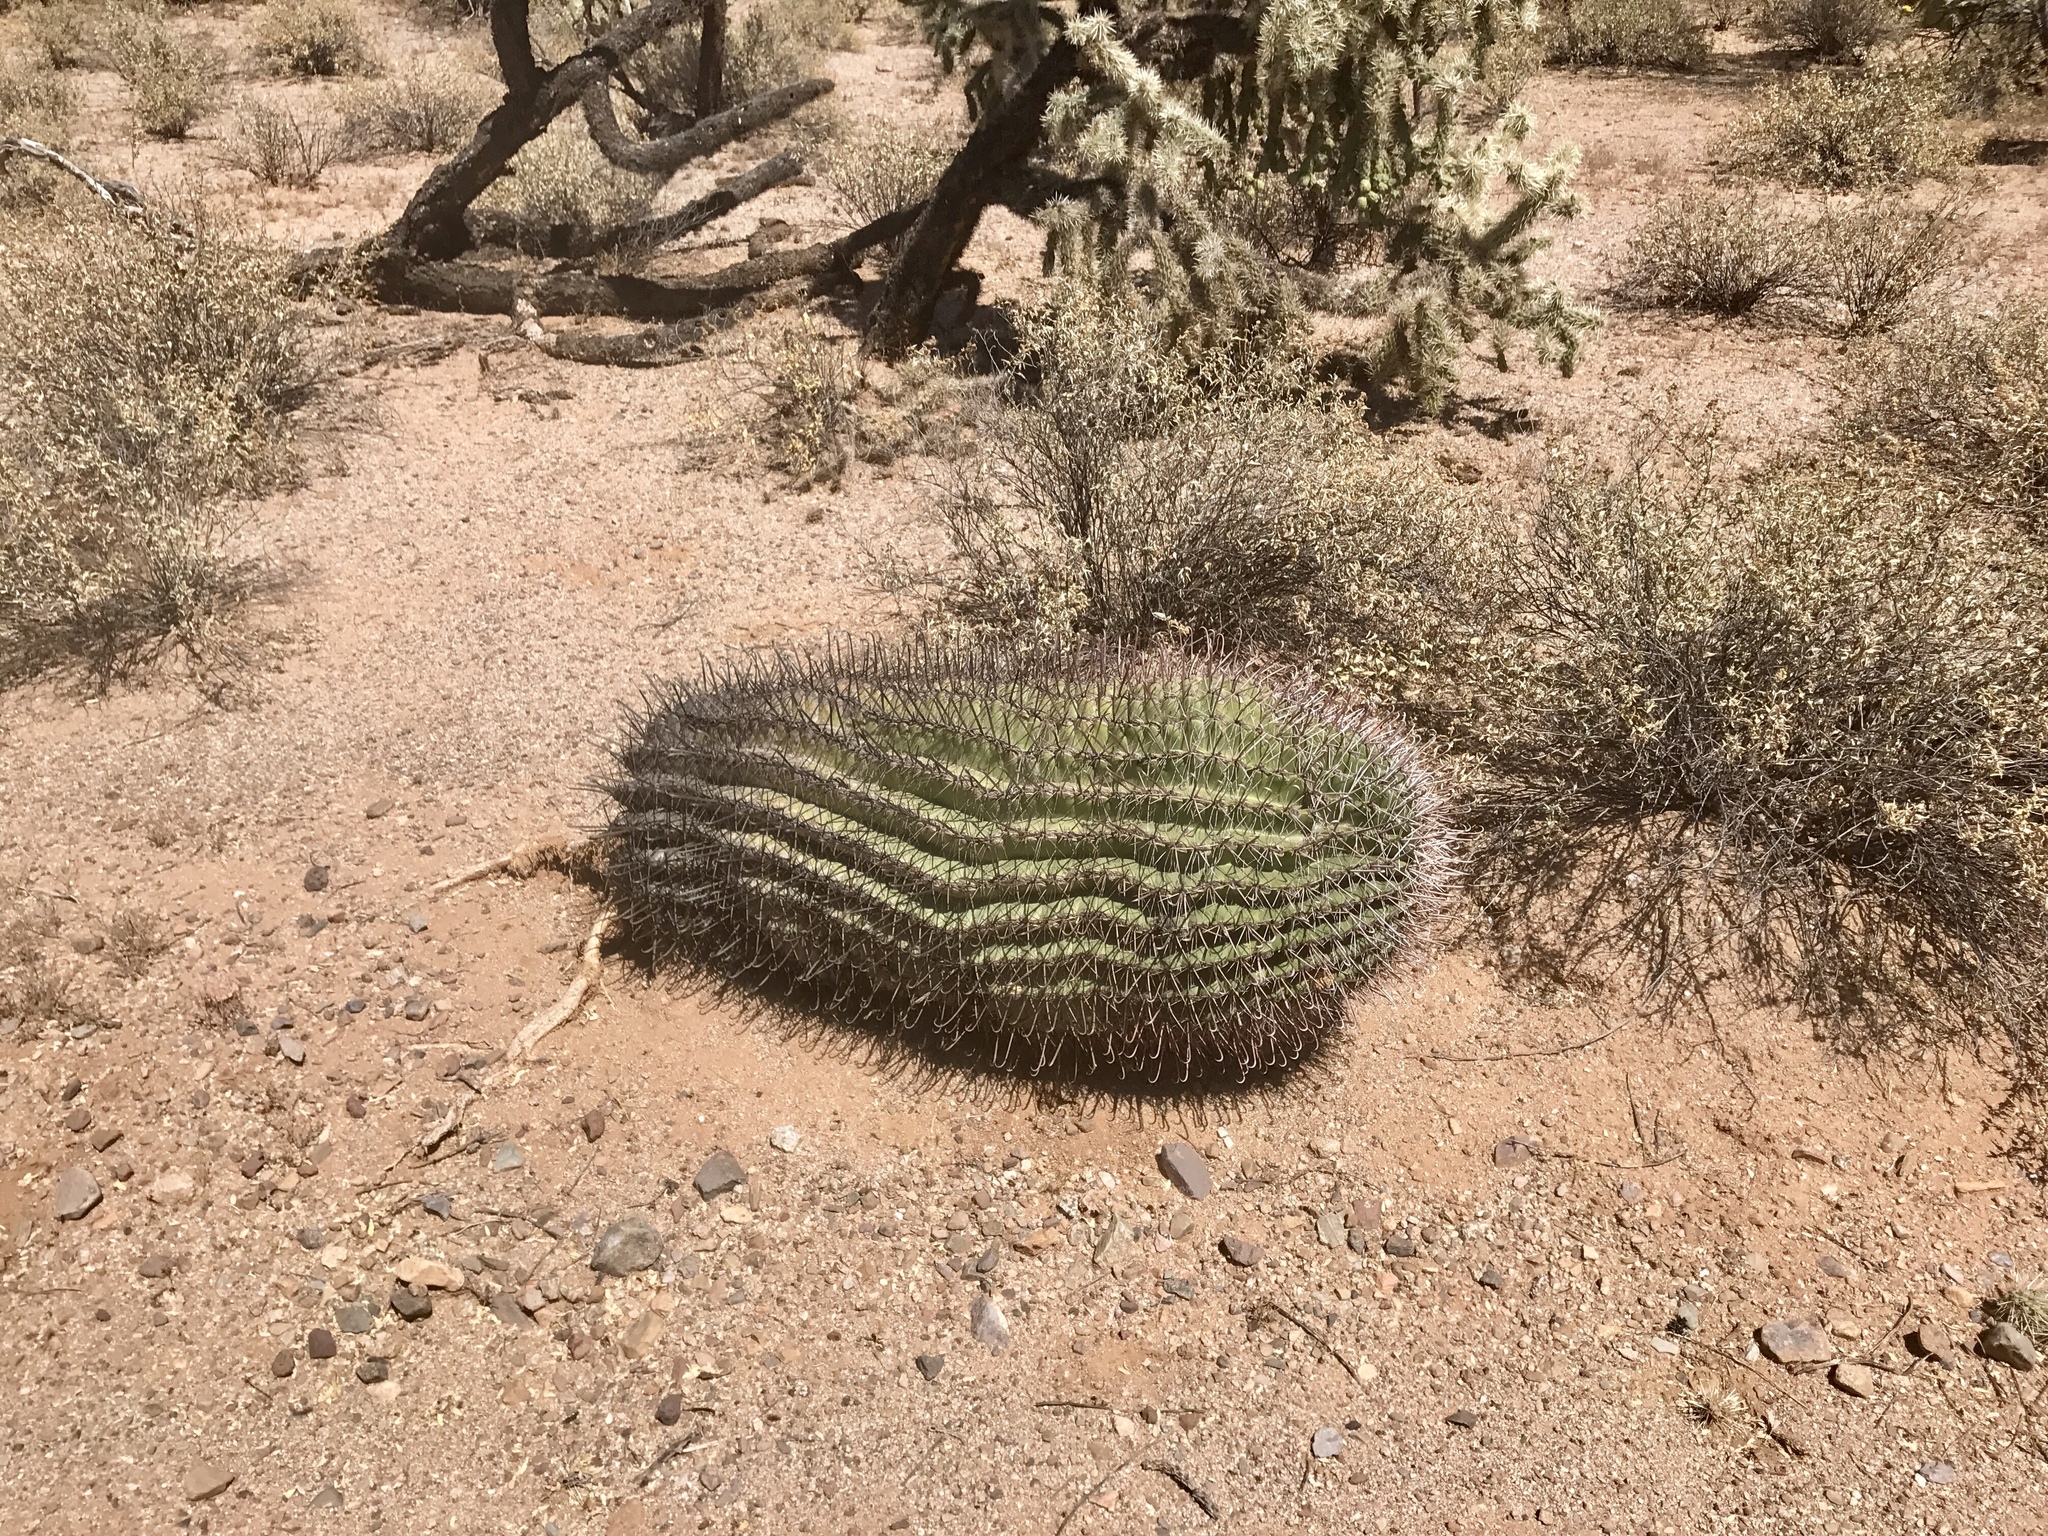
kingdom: Plantae
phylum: Tracheophyta
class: Magnoliopsida
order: Caryophyllales
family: Cactaceae
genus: Ferocactus
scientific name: Ferocactus wislizeni
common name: Candy barrel cactus
